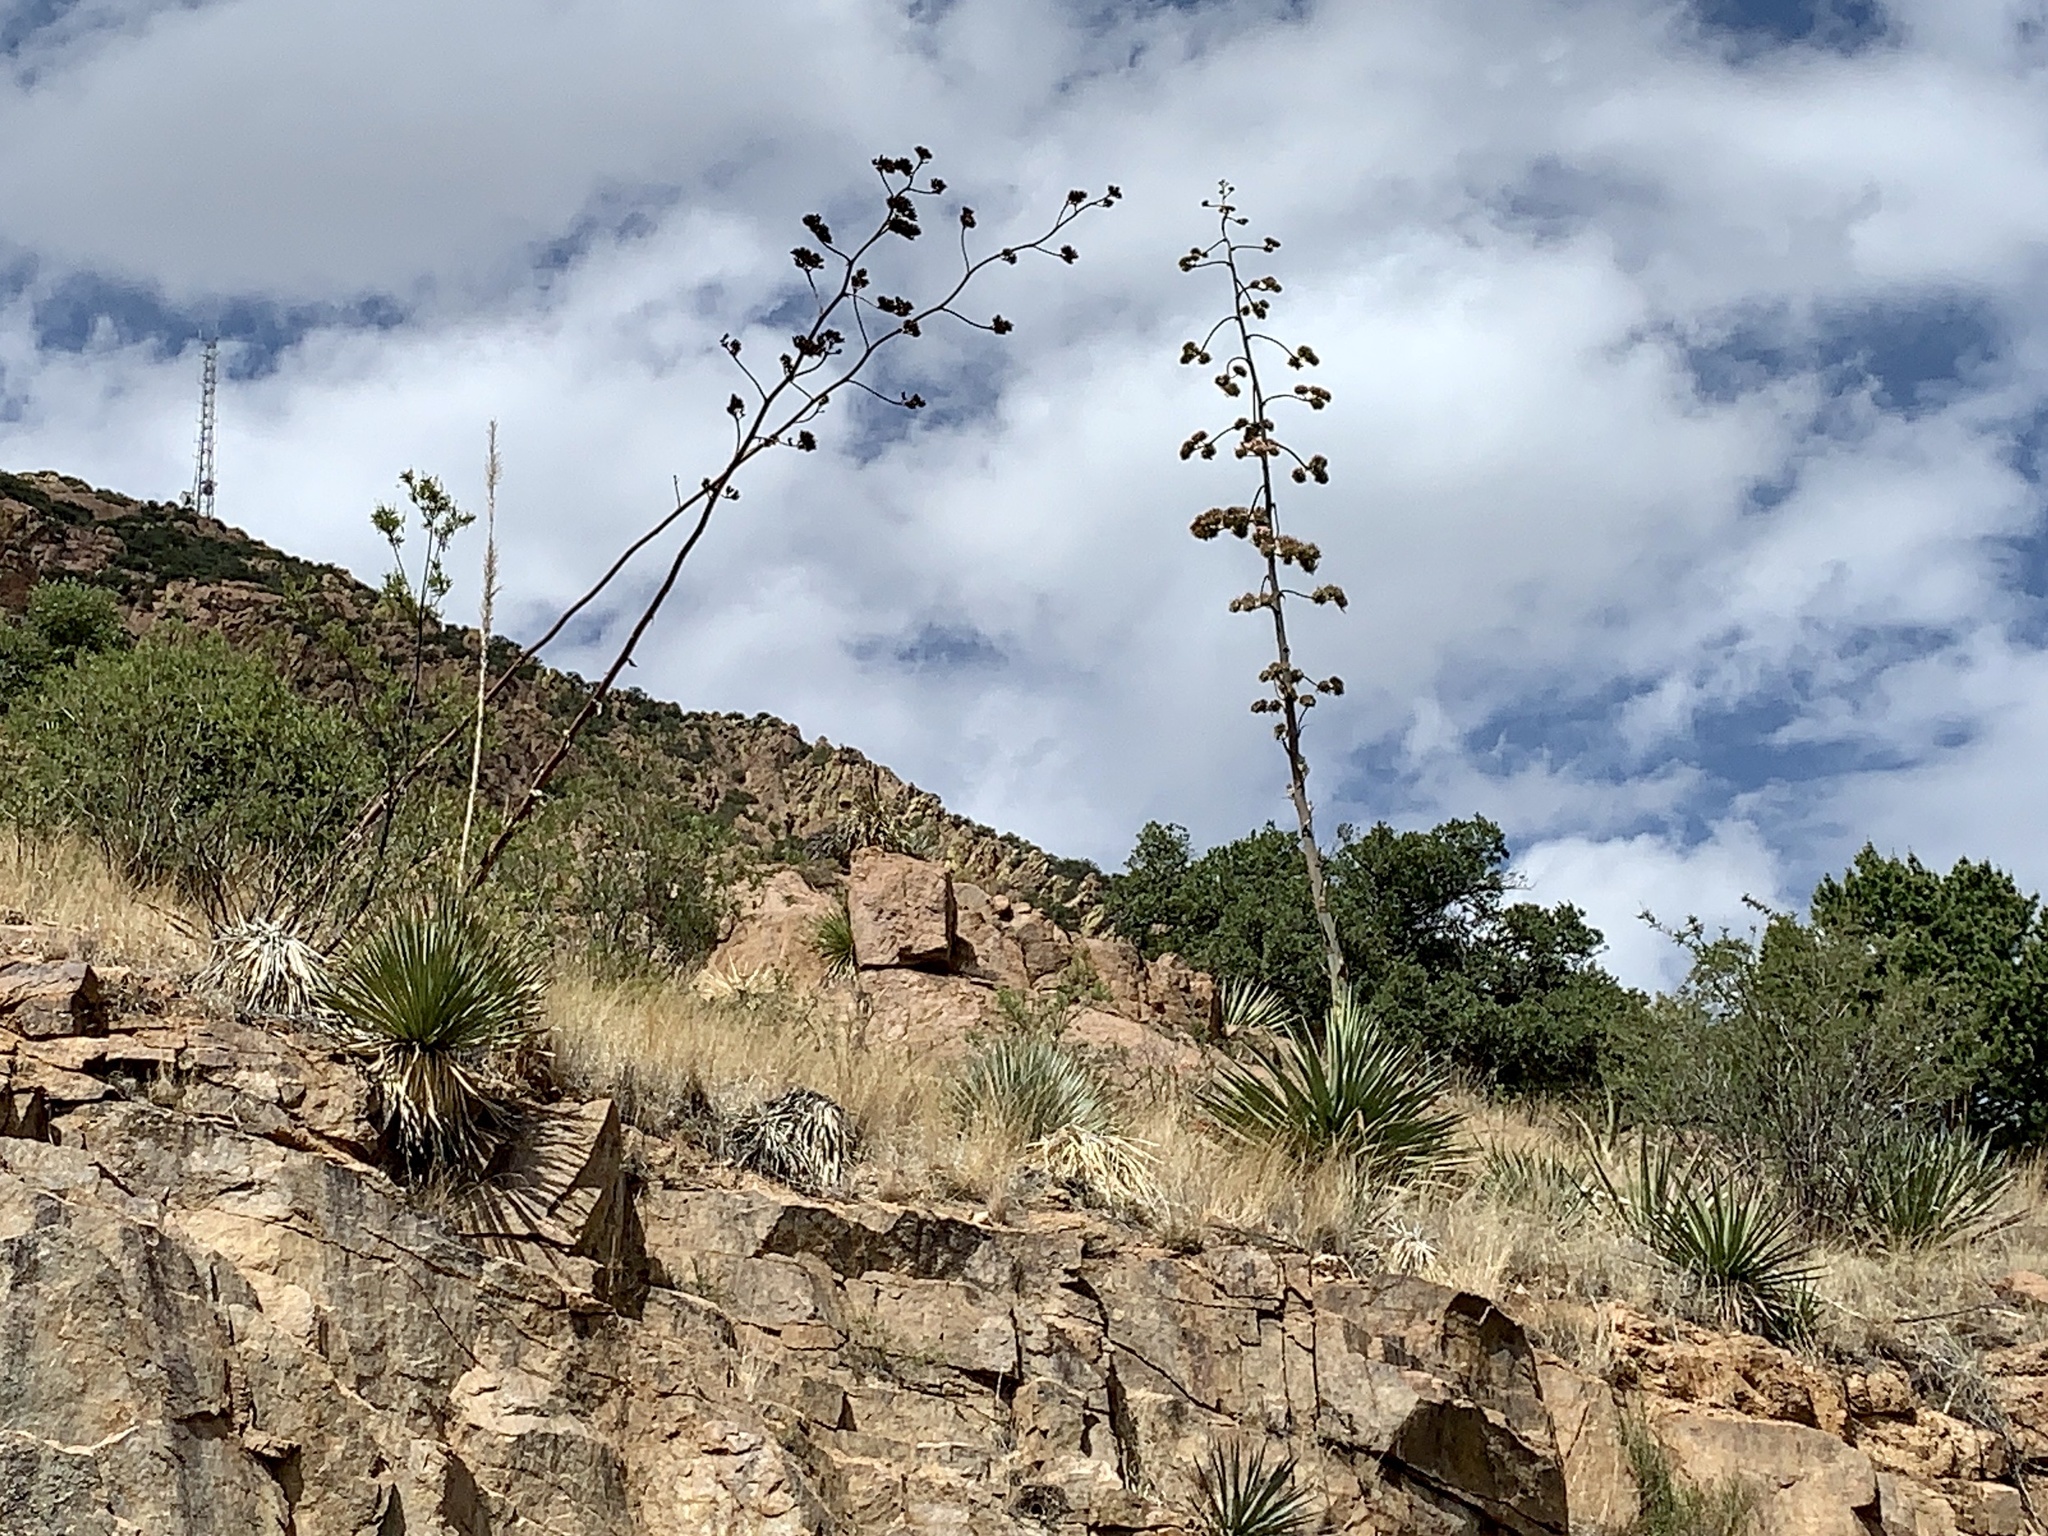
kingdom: Plantae
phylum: Tracheophyta
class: Liliopsida
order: Asparagales
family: Asparagaceae
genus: Agave
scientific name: Agave palmeri
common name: Palmer agave
